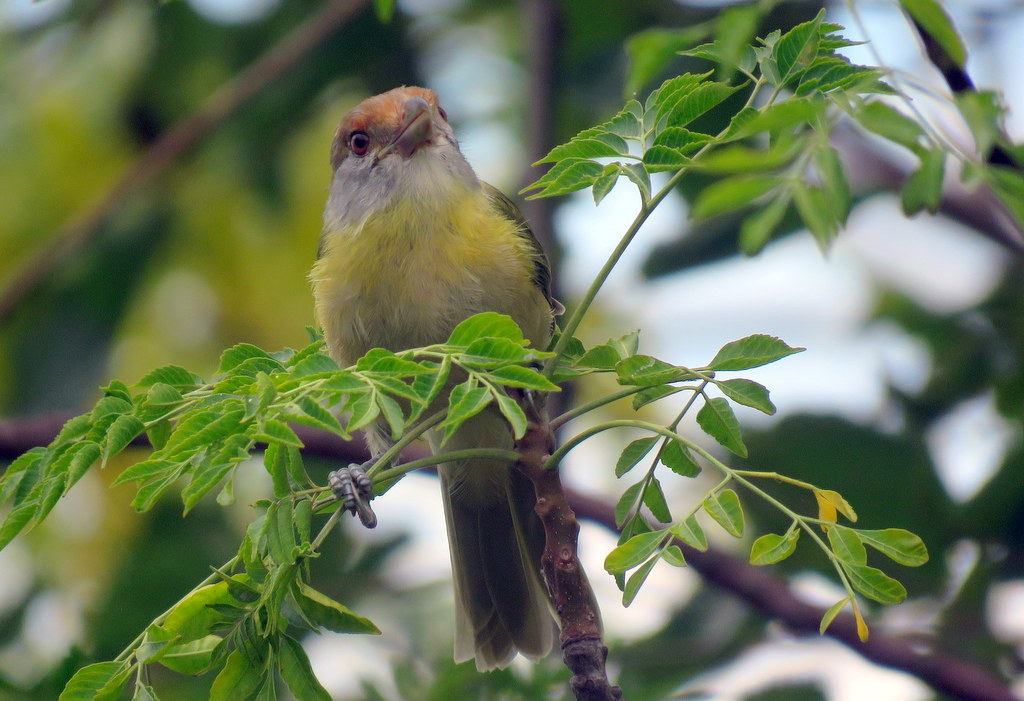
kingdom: Animalia
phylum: Chordata
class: Aves
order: Passeriformes
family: Vireonidae
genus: Cyclarhis
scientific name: Cyclarhis gujanensis
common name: Rufous-browed peppershrike
